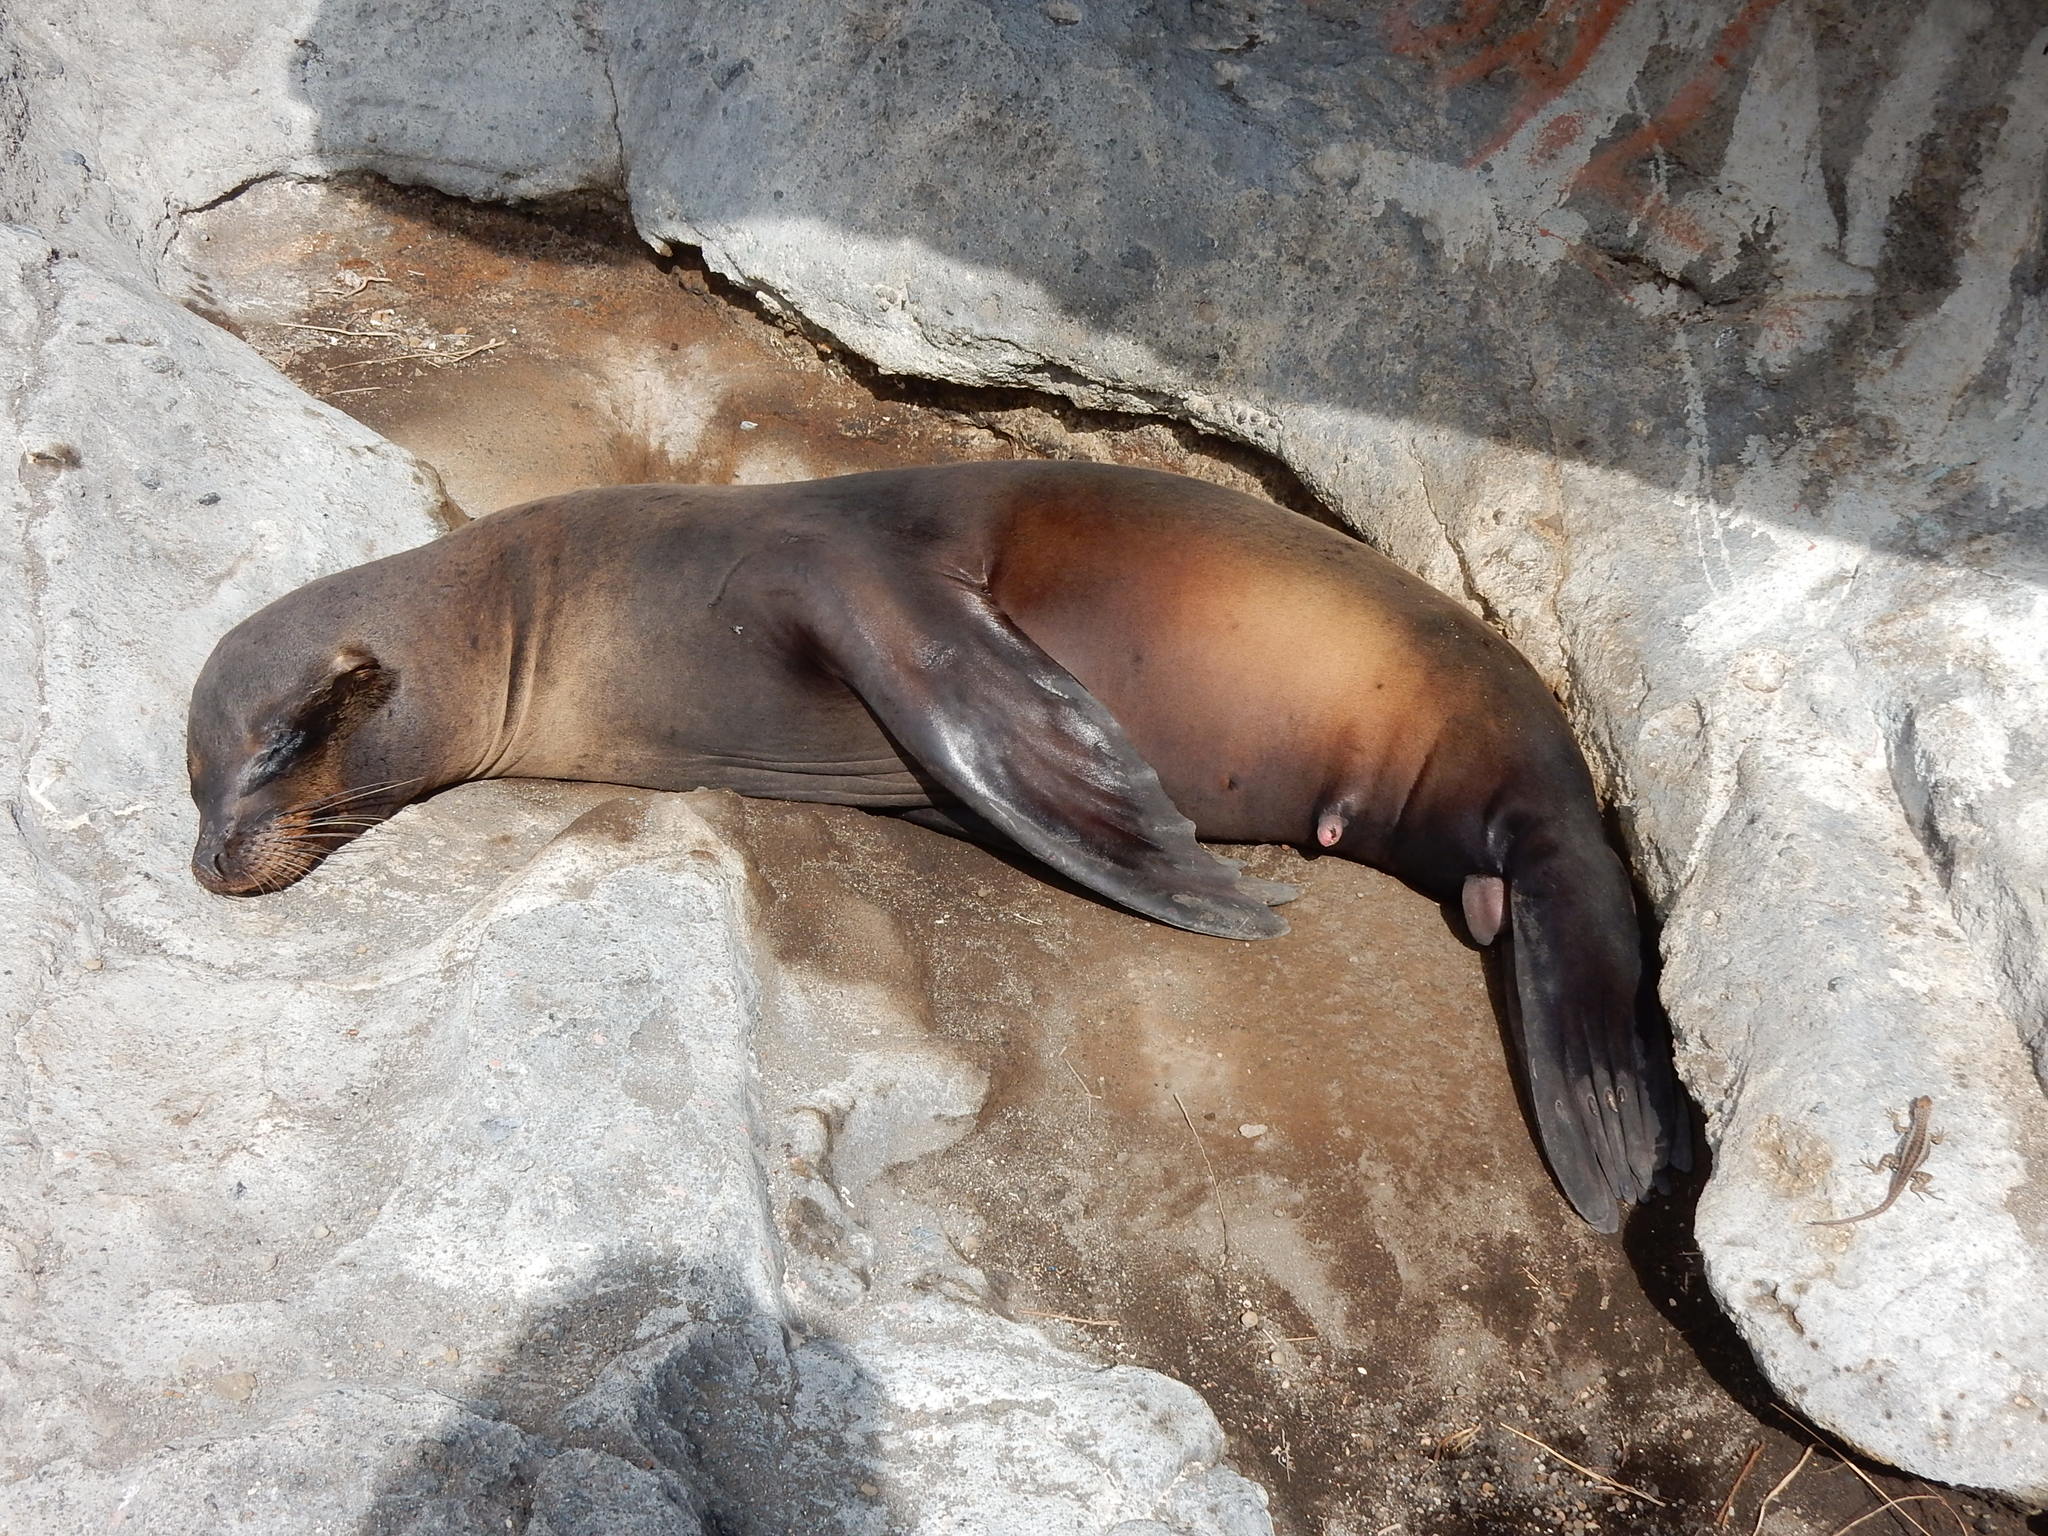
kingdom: Animalia
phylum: Chordata
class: Mammalia
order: Carnivora
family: Otariidae
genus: Zalophus
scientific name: Zalophus wollebaeki
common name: Galapagos sea lion
